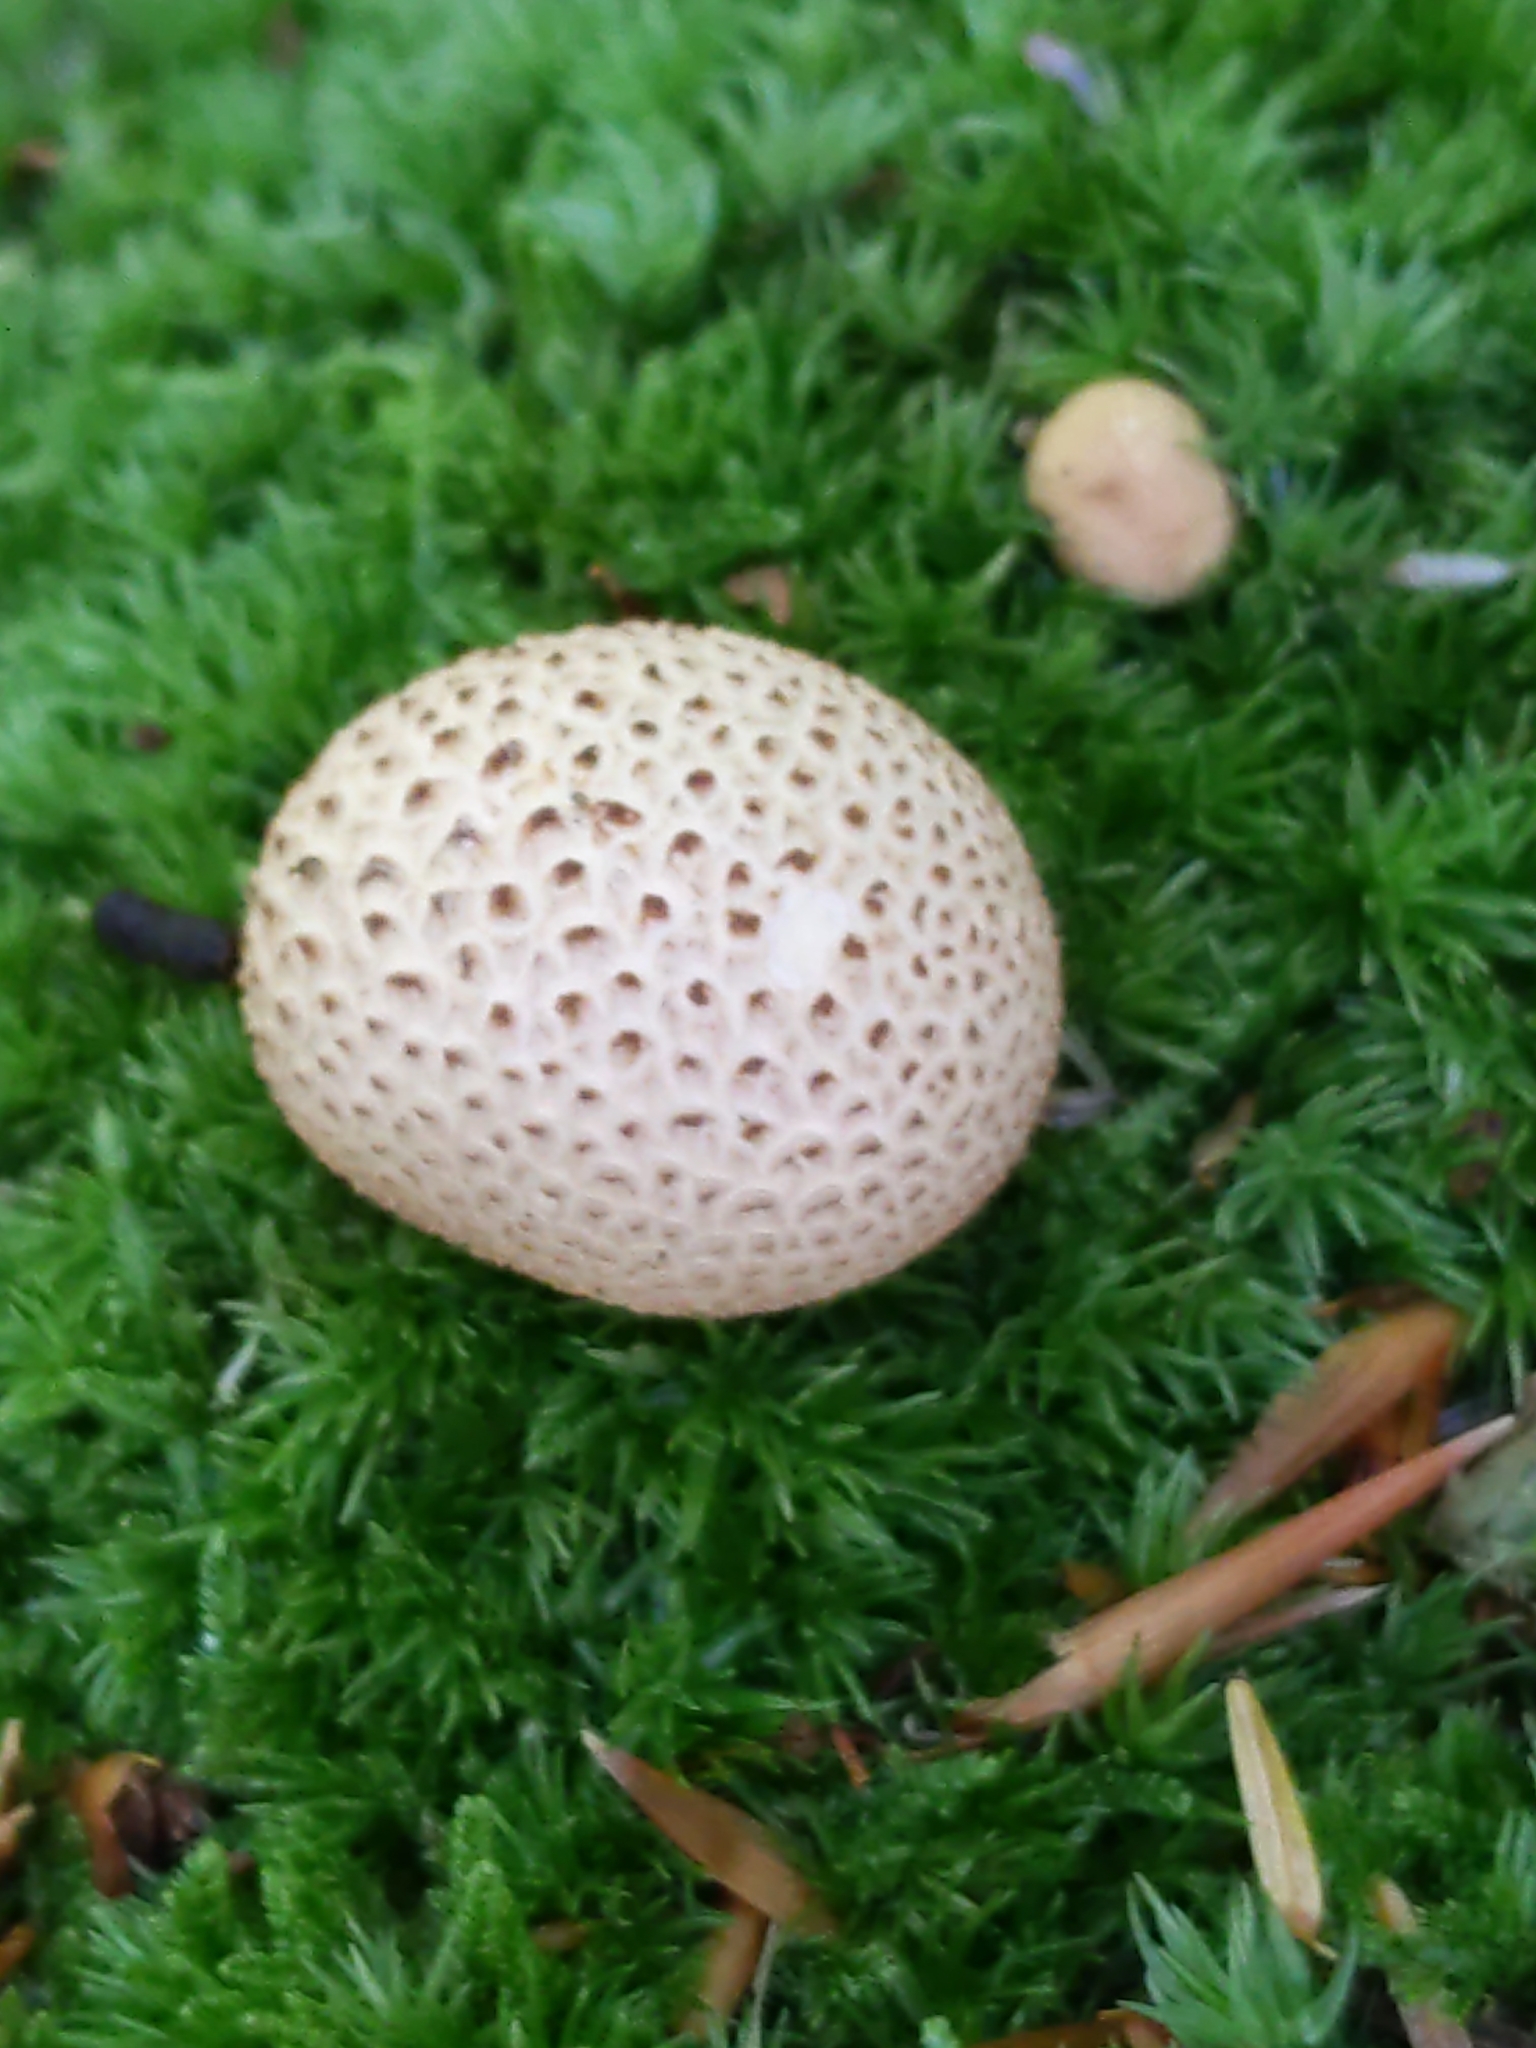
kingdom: Fungi
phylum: Basidiomycota
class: Agaricomycetes
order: Boletales
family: Sclerodermataceae
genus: Scleroderma
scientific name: Scleroderma citrinum
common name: Common earthball
